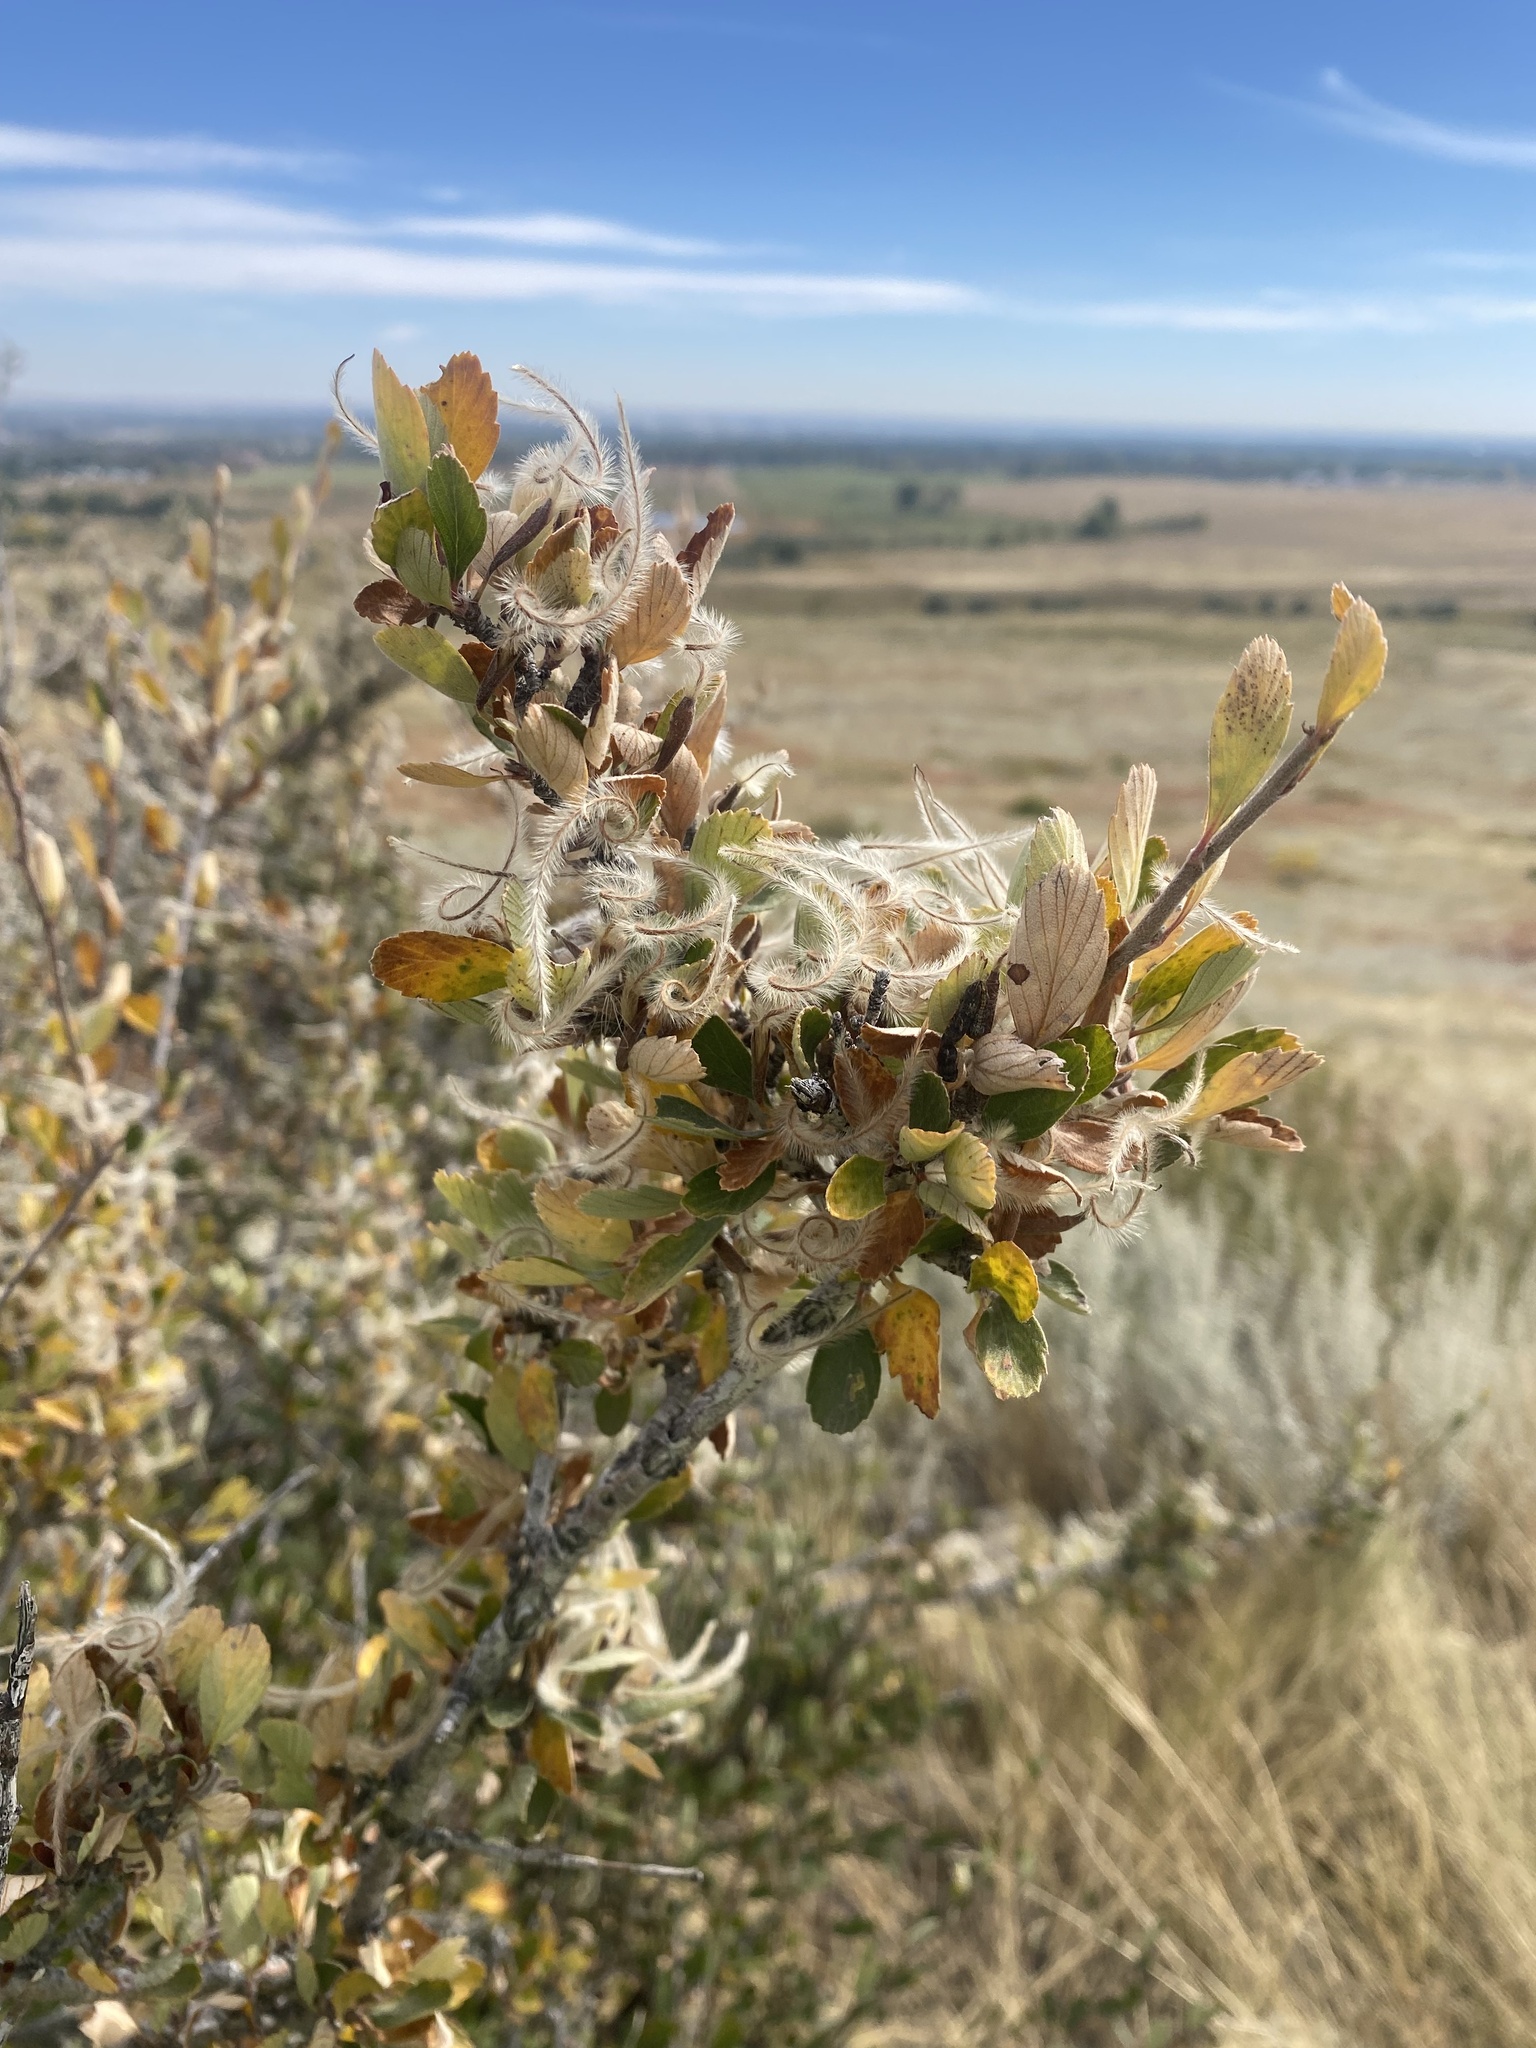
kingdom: Plantae
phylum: Tracheophyta
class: Magnoliopsida
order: Rosales
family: Rosaceae
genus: Cercocarpus
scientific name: Cercocarpus montanus
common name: Alder-leaf cercocarpus
